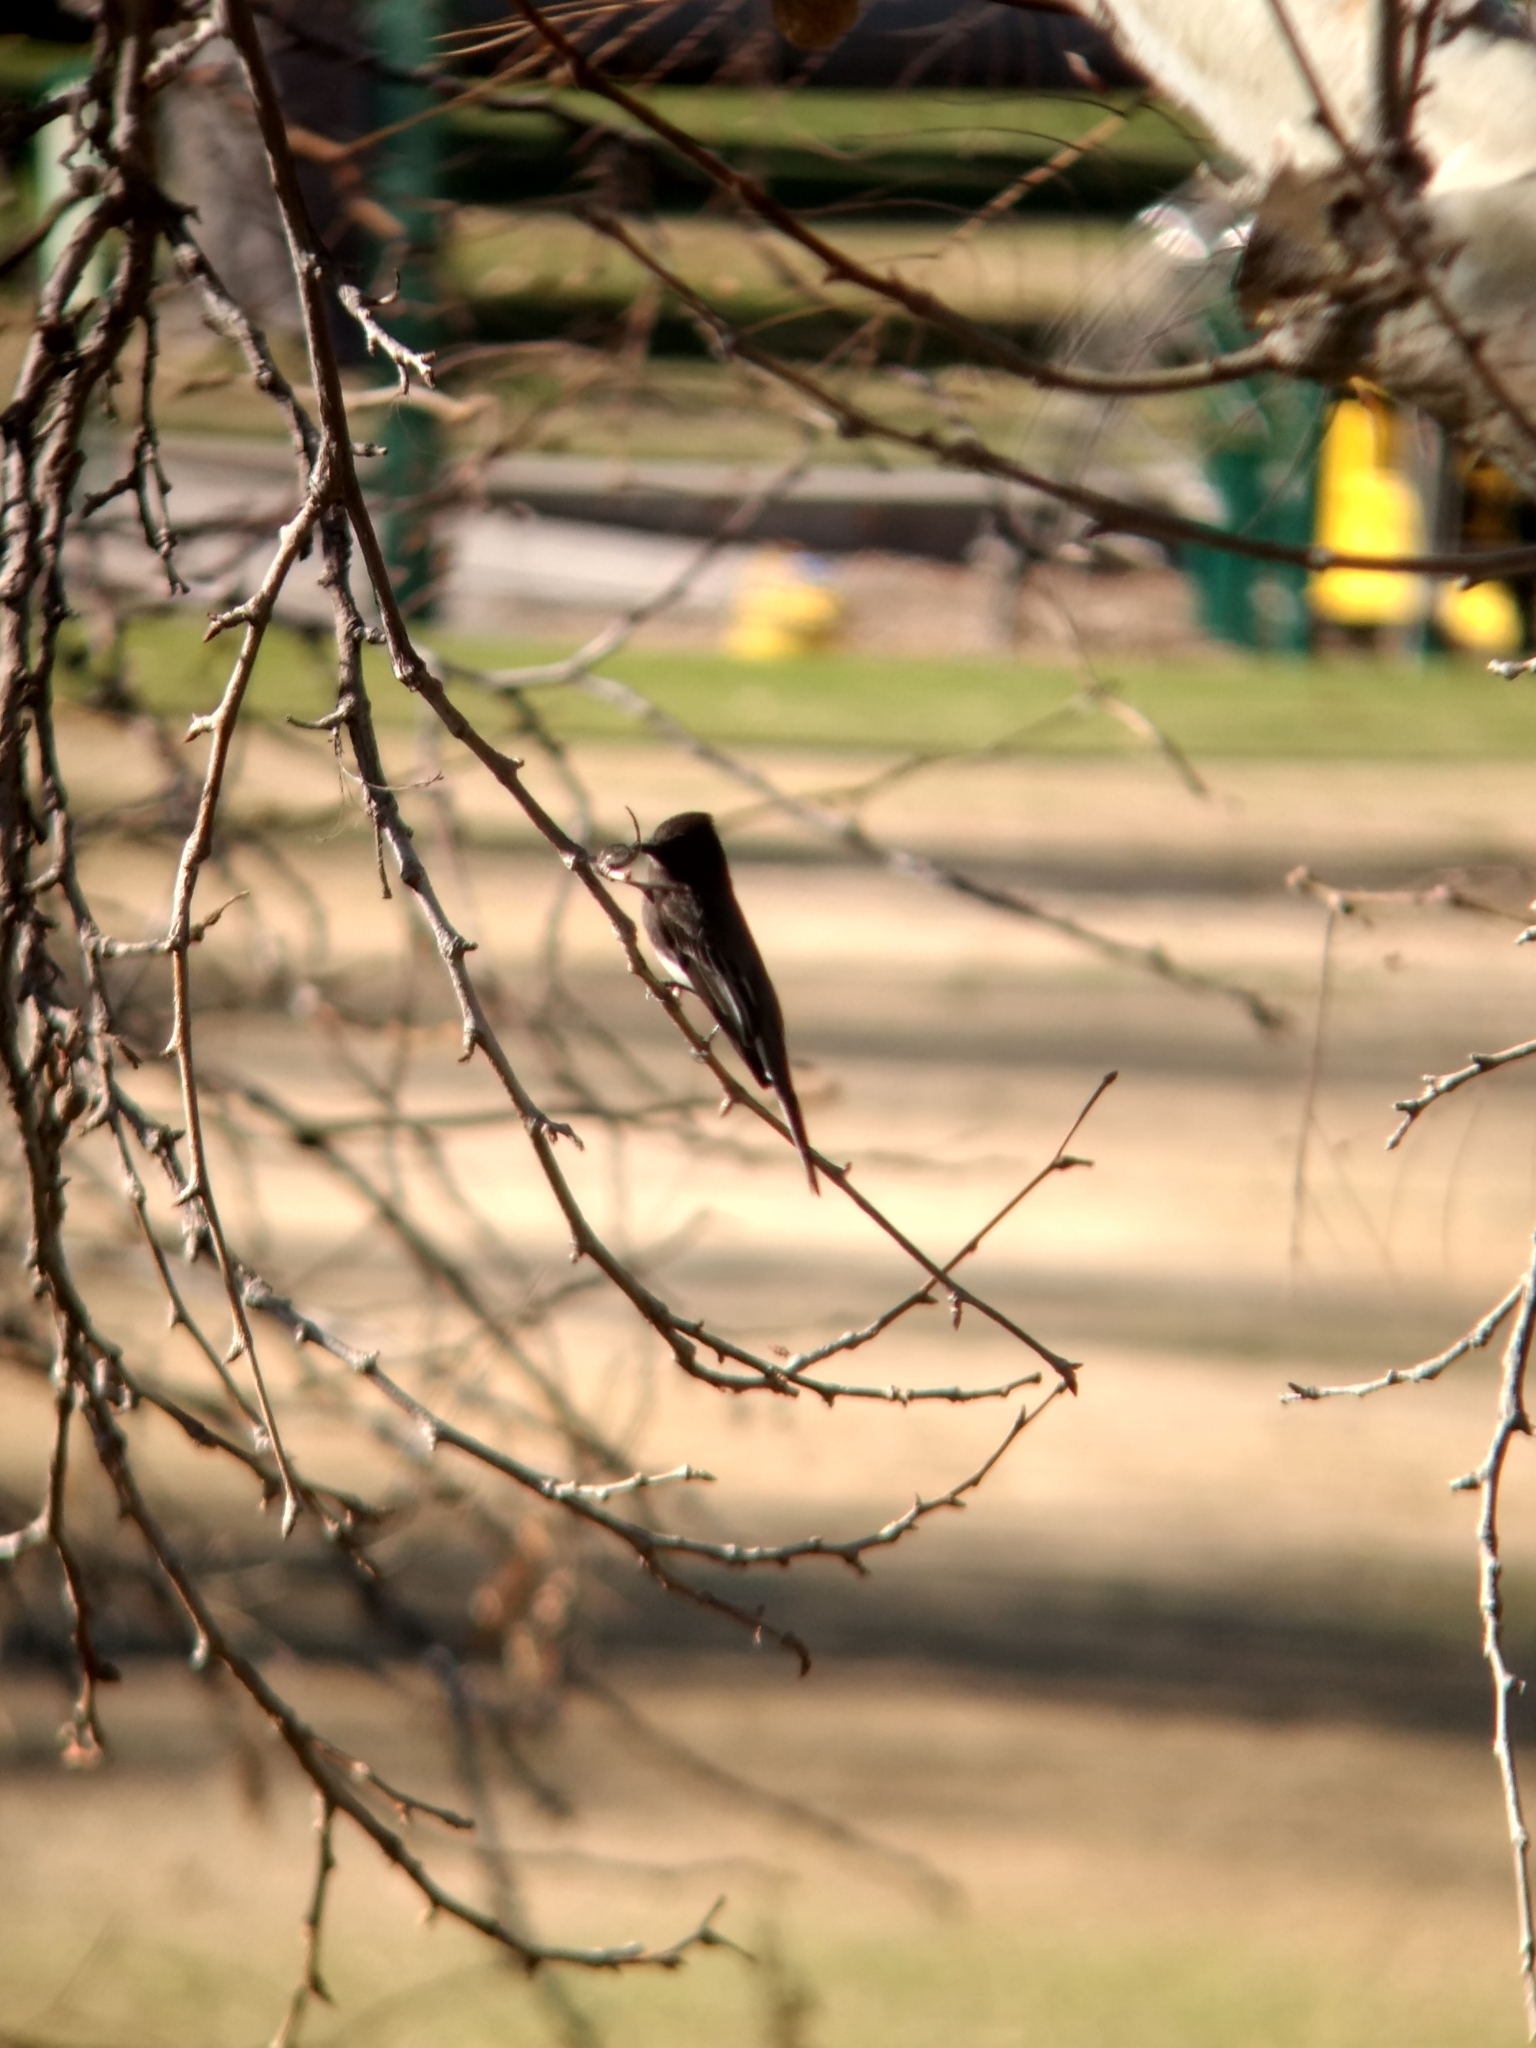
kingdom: Animalia
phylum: Chordata
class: Aves
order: Passeriformes
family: Tyrannidae
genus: Sayornis
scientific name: Sayornis nigricans
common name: Black phoebe
